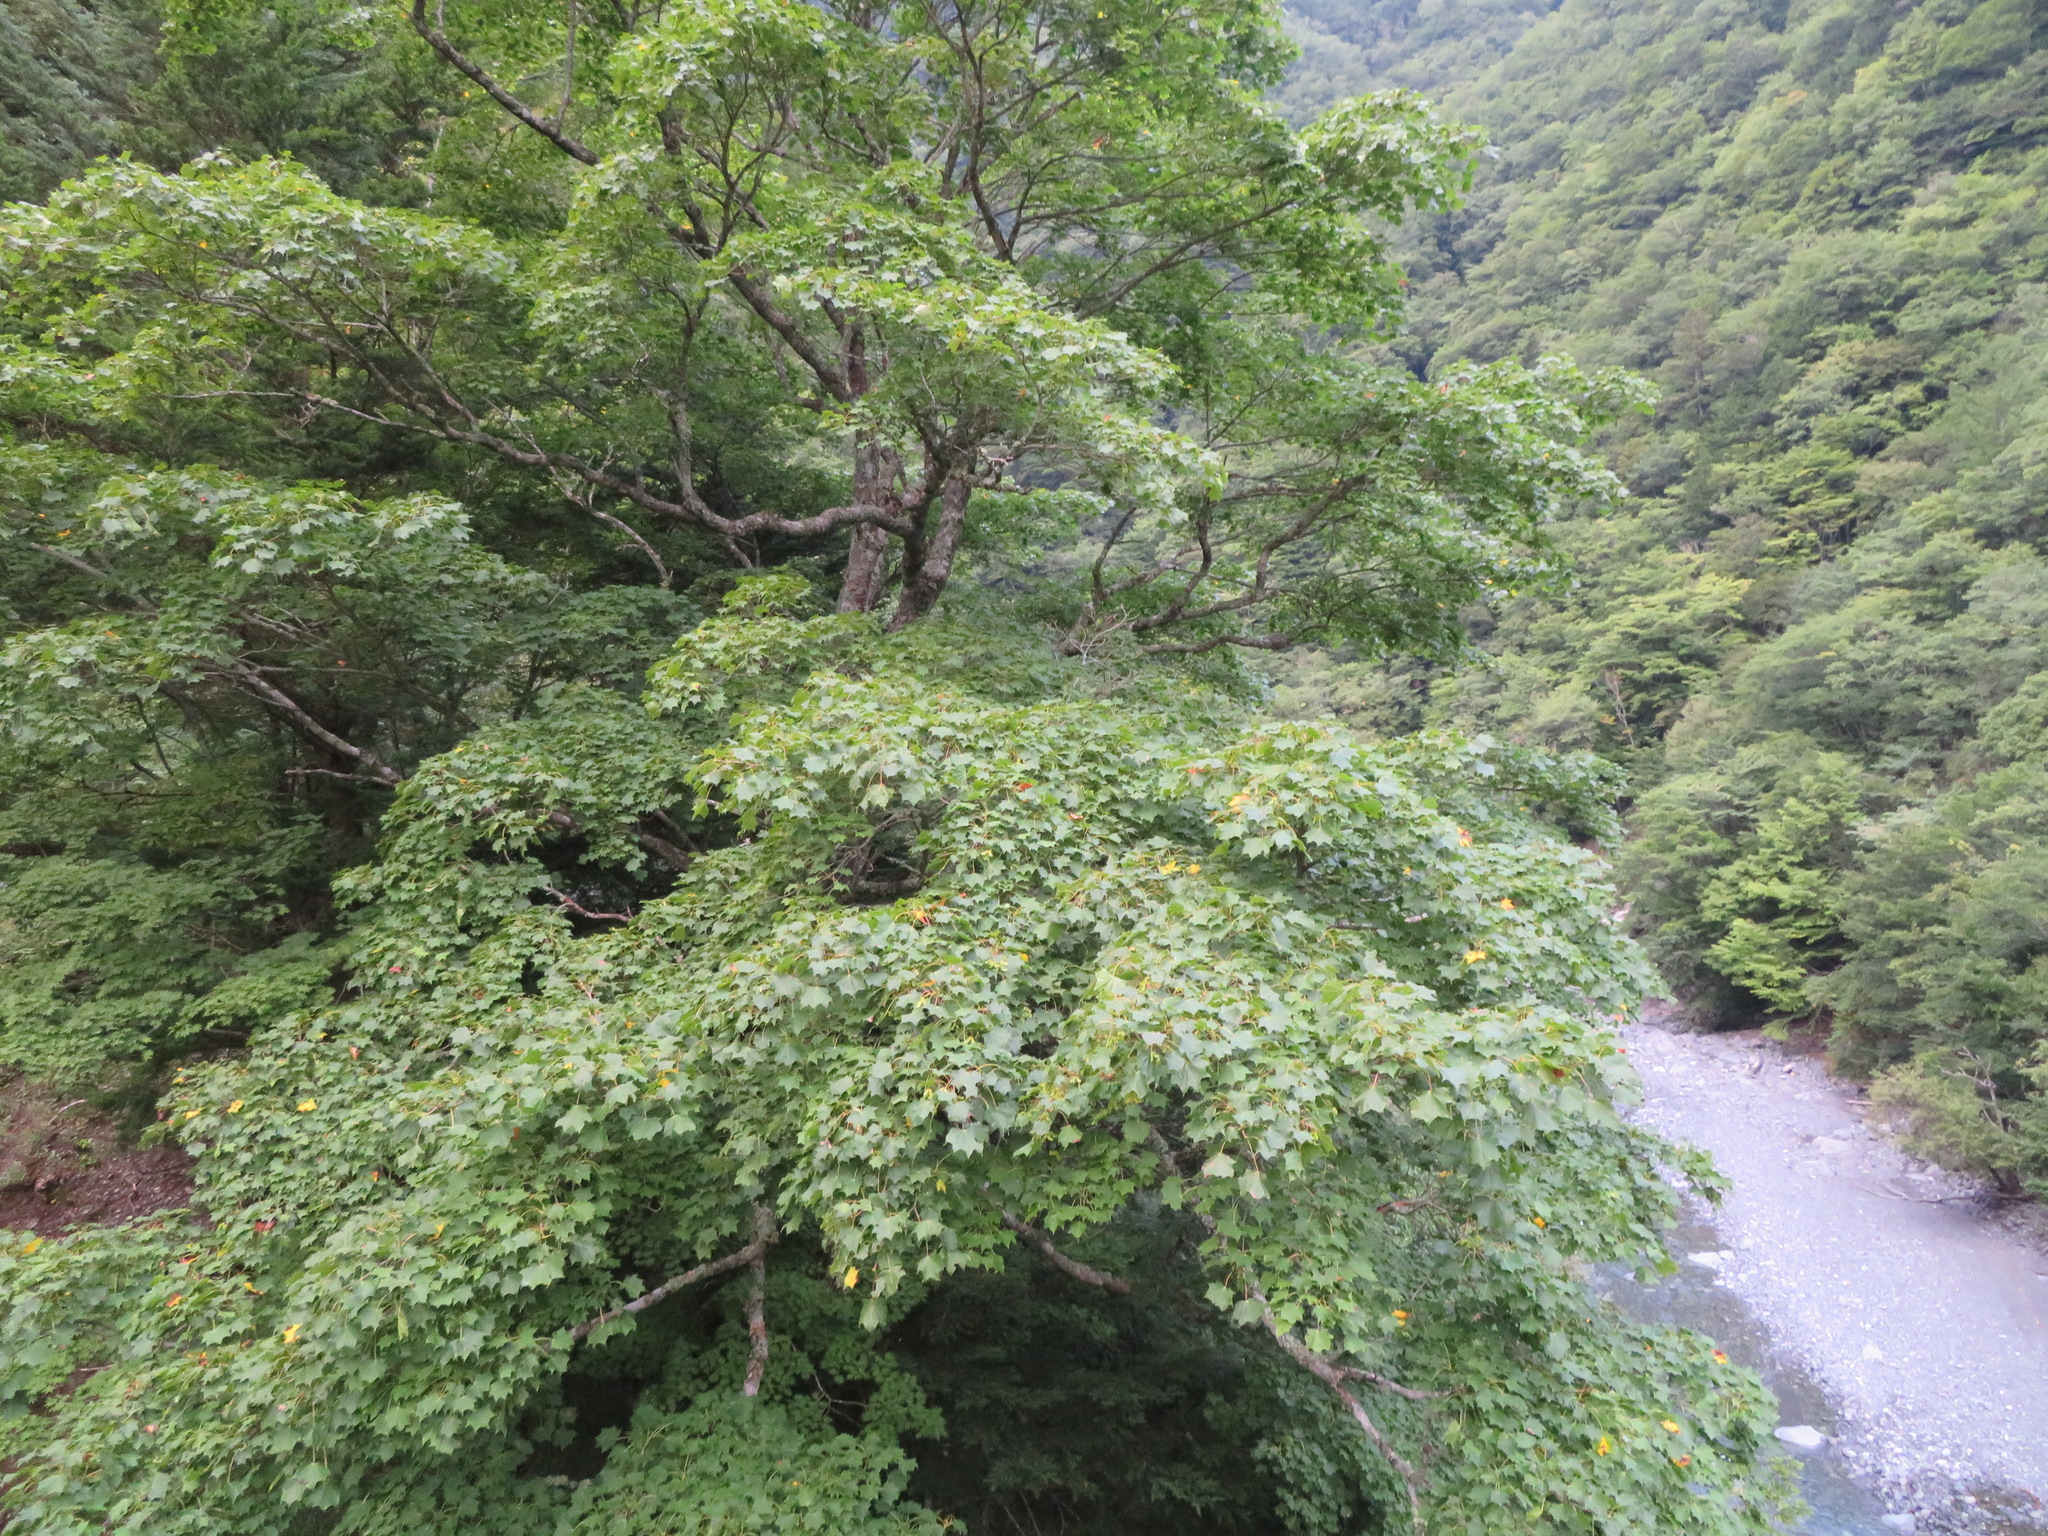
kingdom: Plantae
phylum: Tracheophyta
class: Magnoliopsida
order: Sapindales
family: Sapindaceae
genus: Acer
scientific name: Acer pictum
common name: The painted maple
